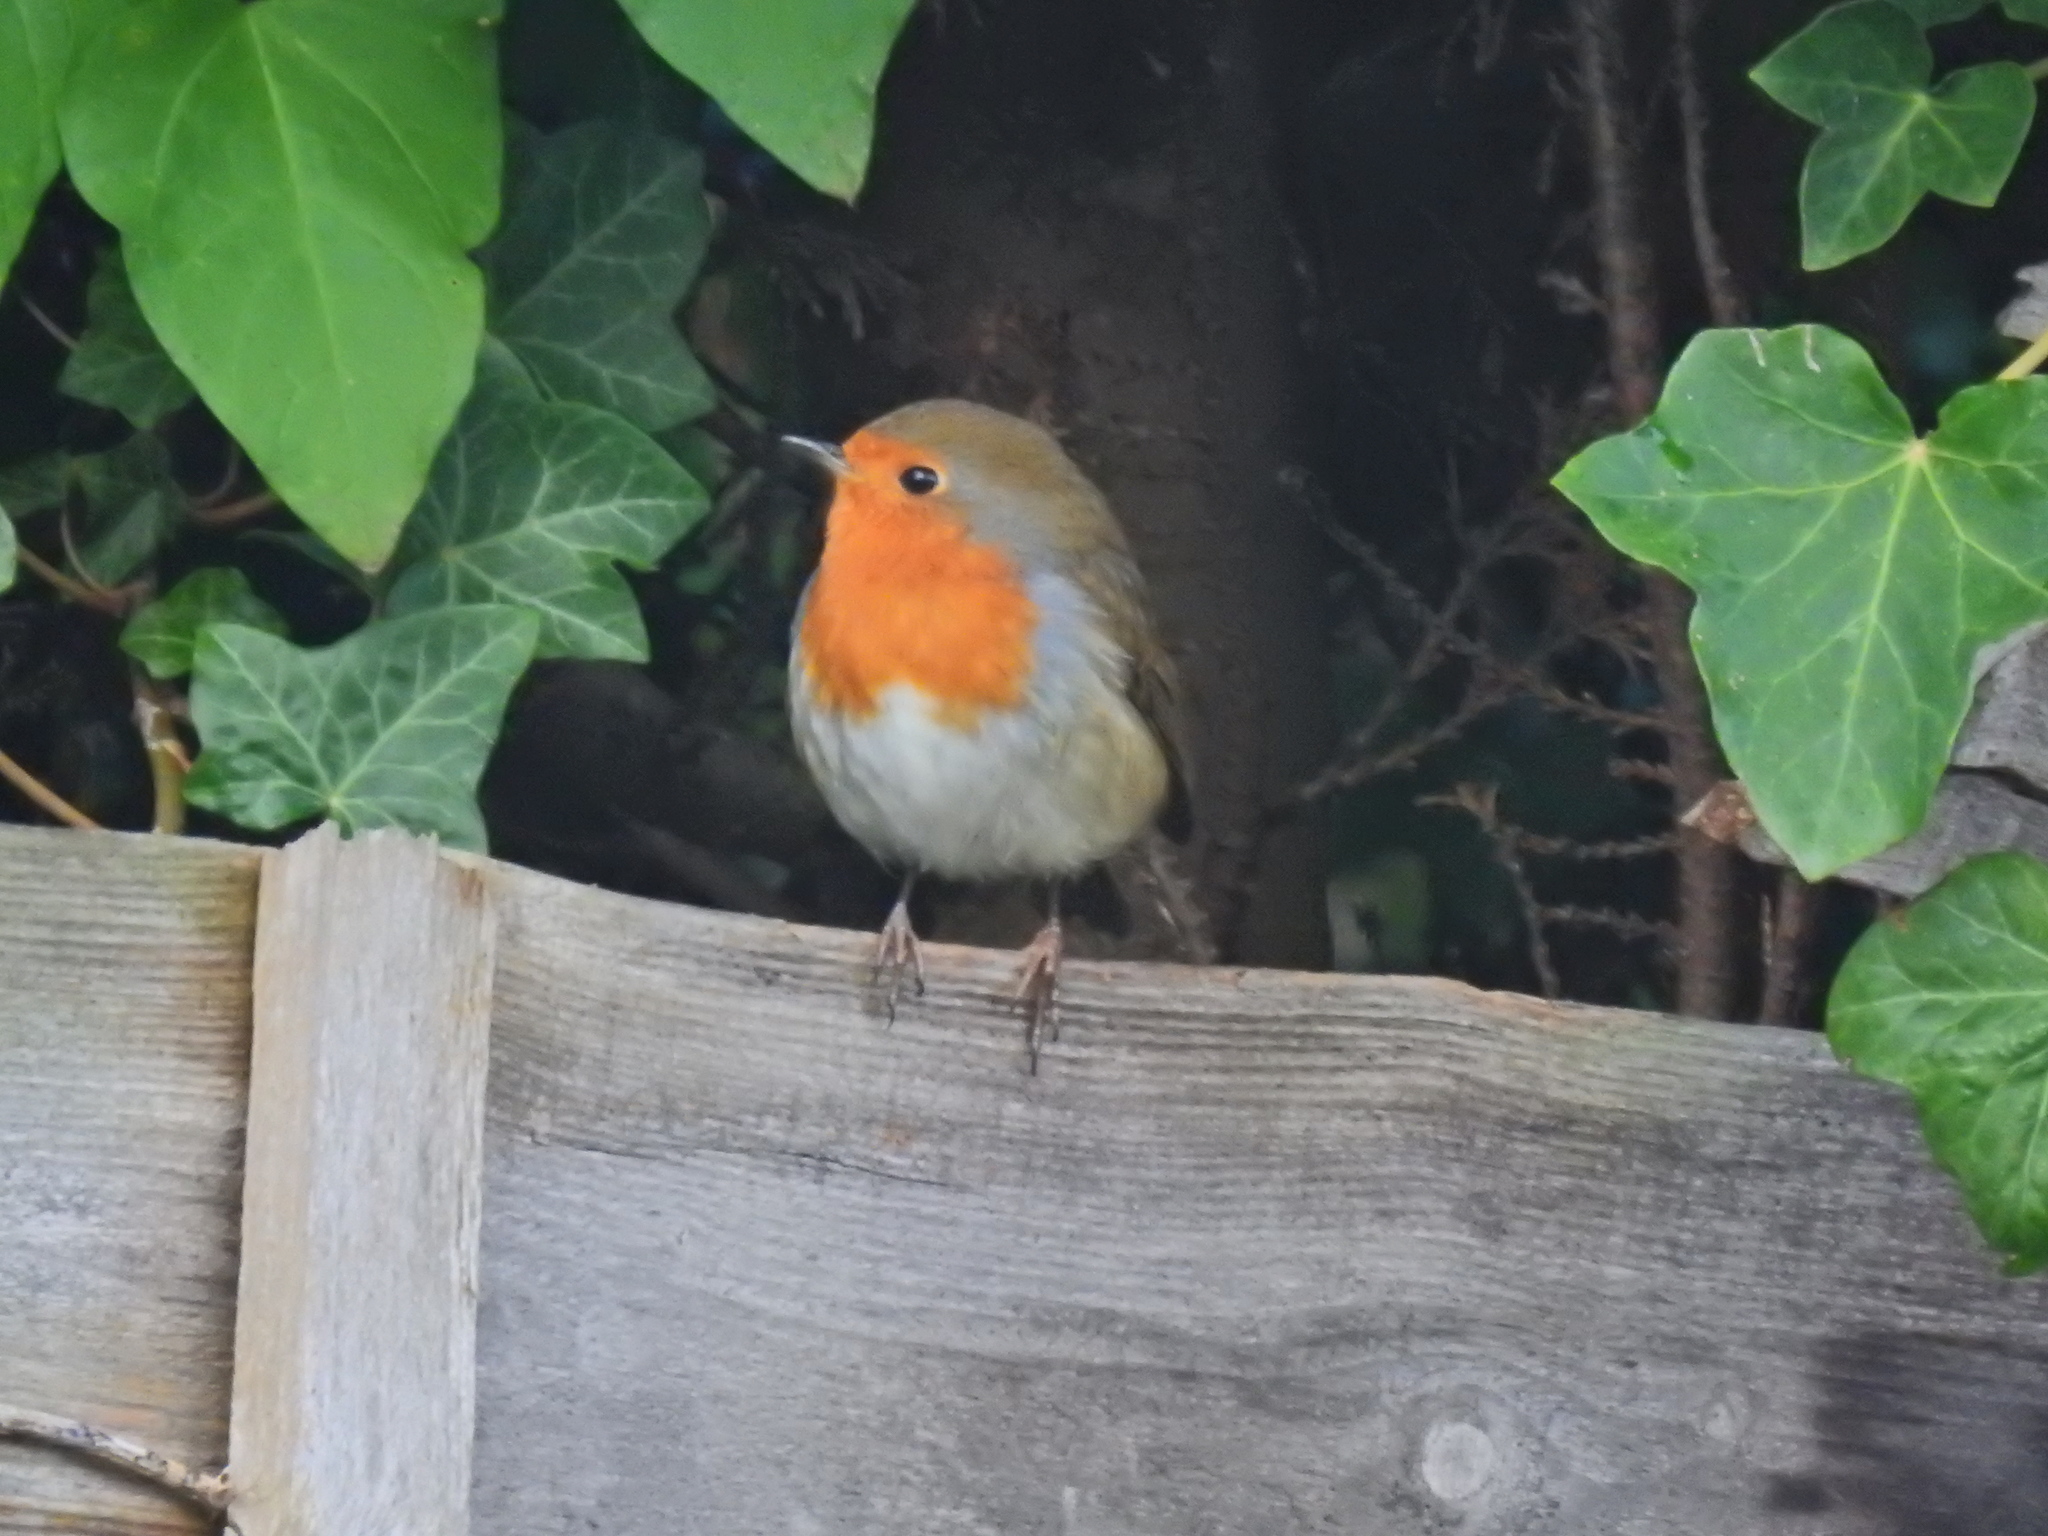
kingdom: Animalia
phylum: Chordata
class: Aves
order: Passeriformes
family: Muscicapidae
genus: Erithacus
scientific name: Erithacus rubecula
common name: European robin
